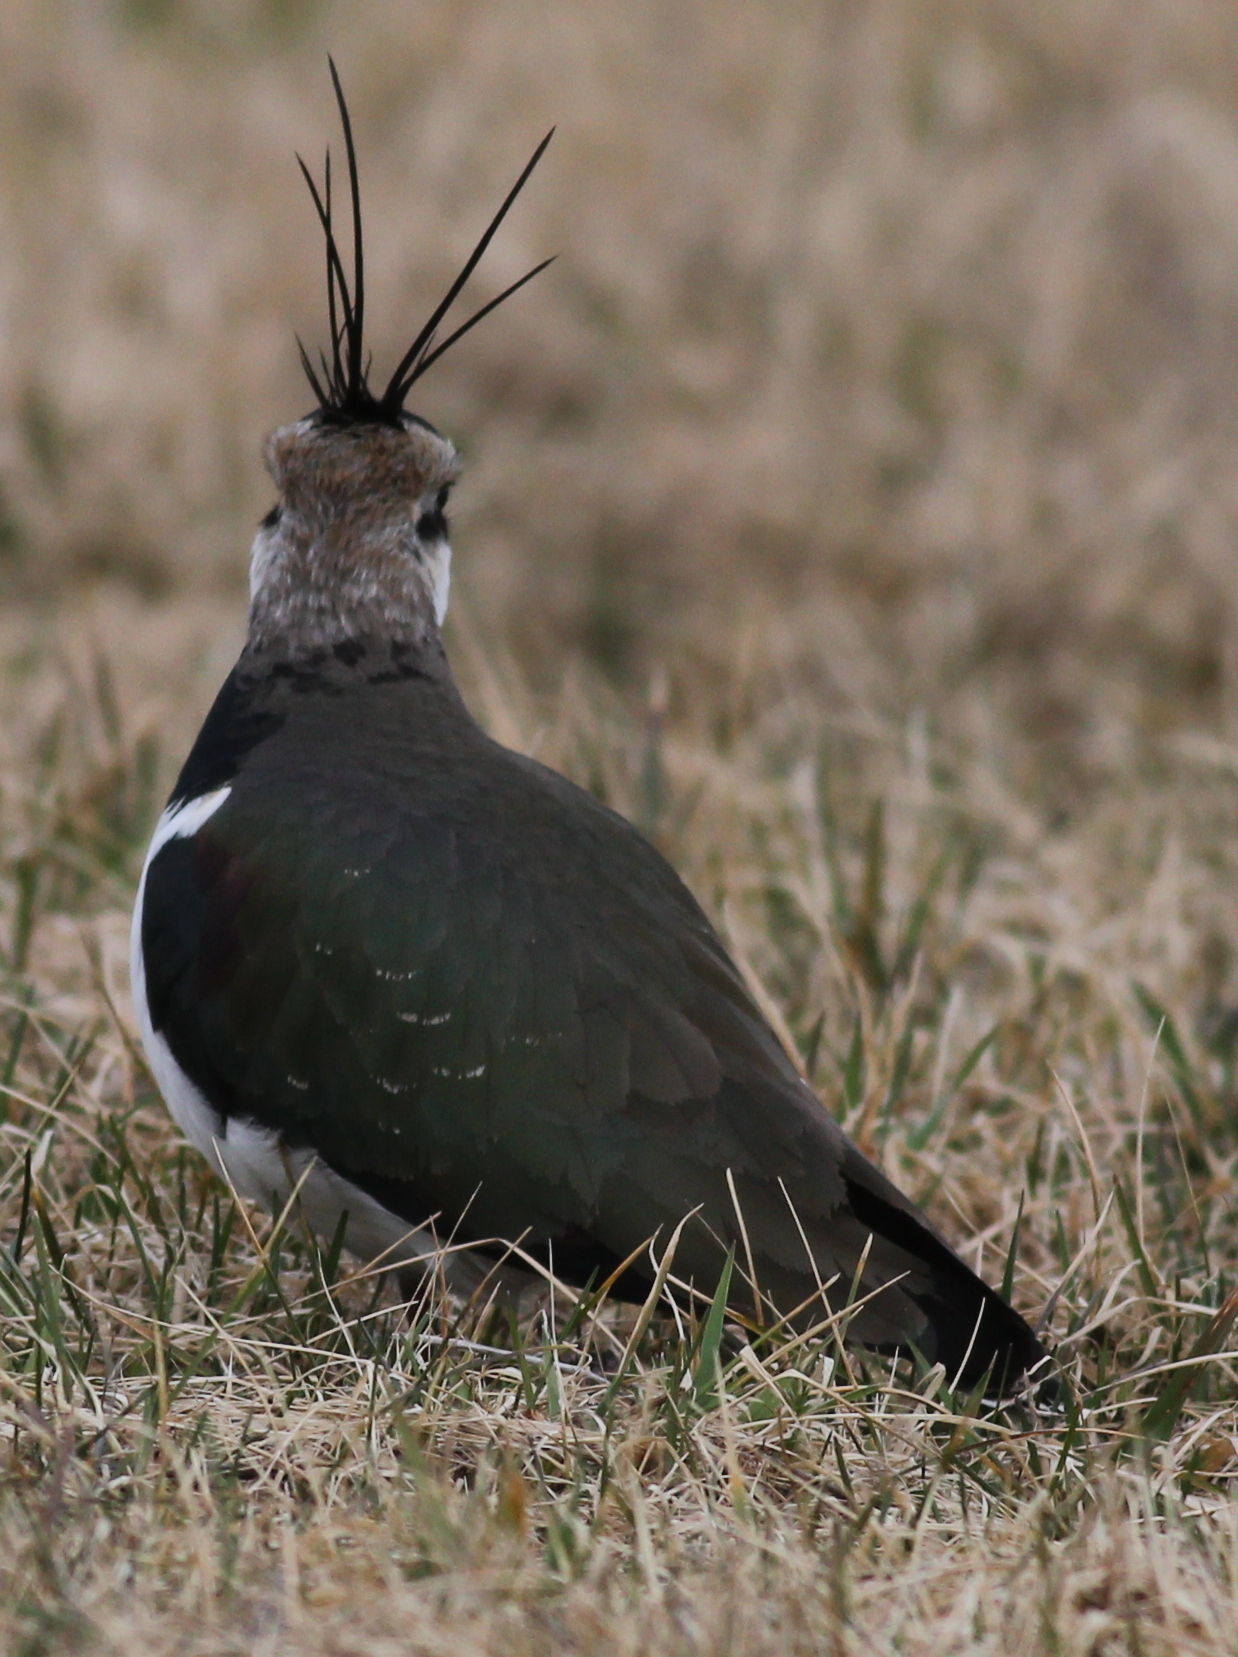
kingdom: Animalia
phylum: Chordata
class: Aves
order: Charadriiformes
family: Charadriidae
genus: Vanellus
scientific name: Vanellus vanellus
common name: Northern lapwing
